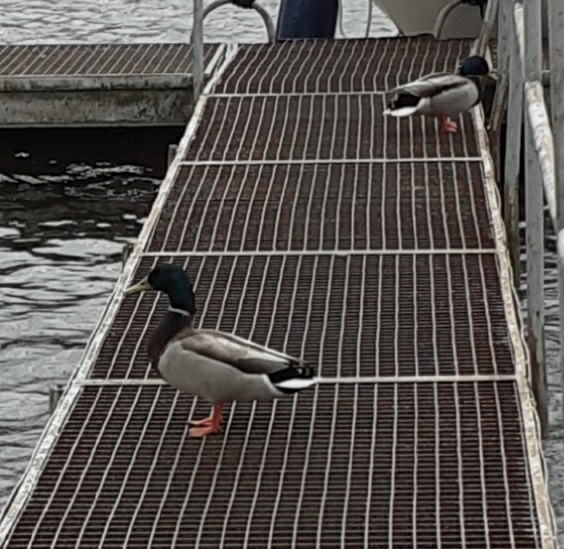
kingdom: Animalia
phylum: Chordata
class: Aves
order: Anseriformes
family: Anatidae
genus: Anas
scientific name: Anas platyrhynchos
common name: Mallard
